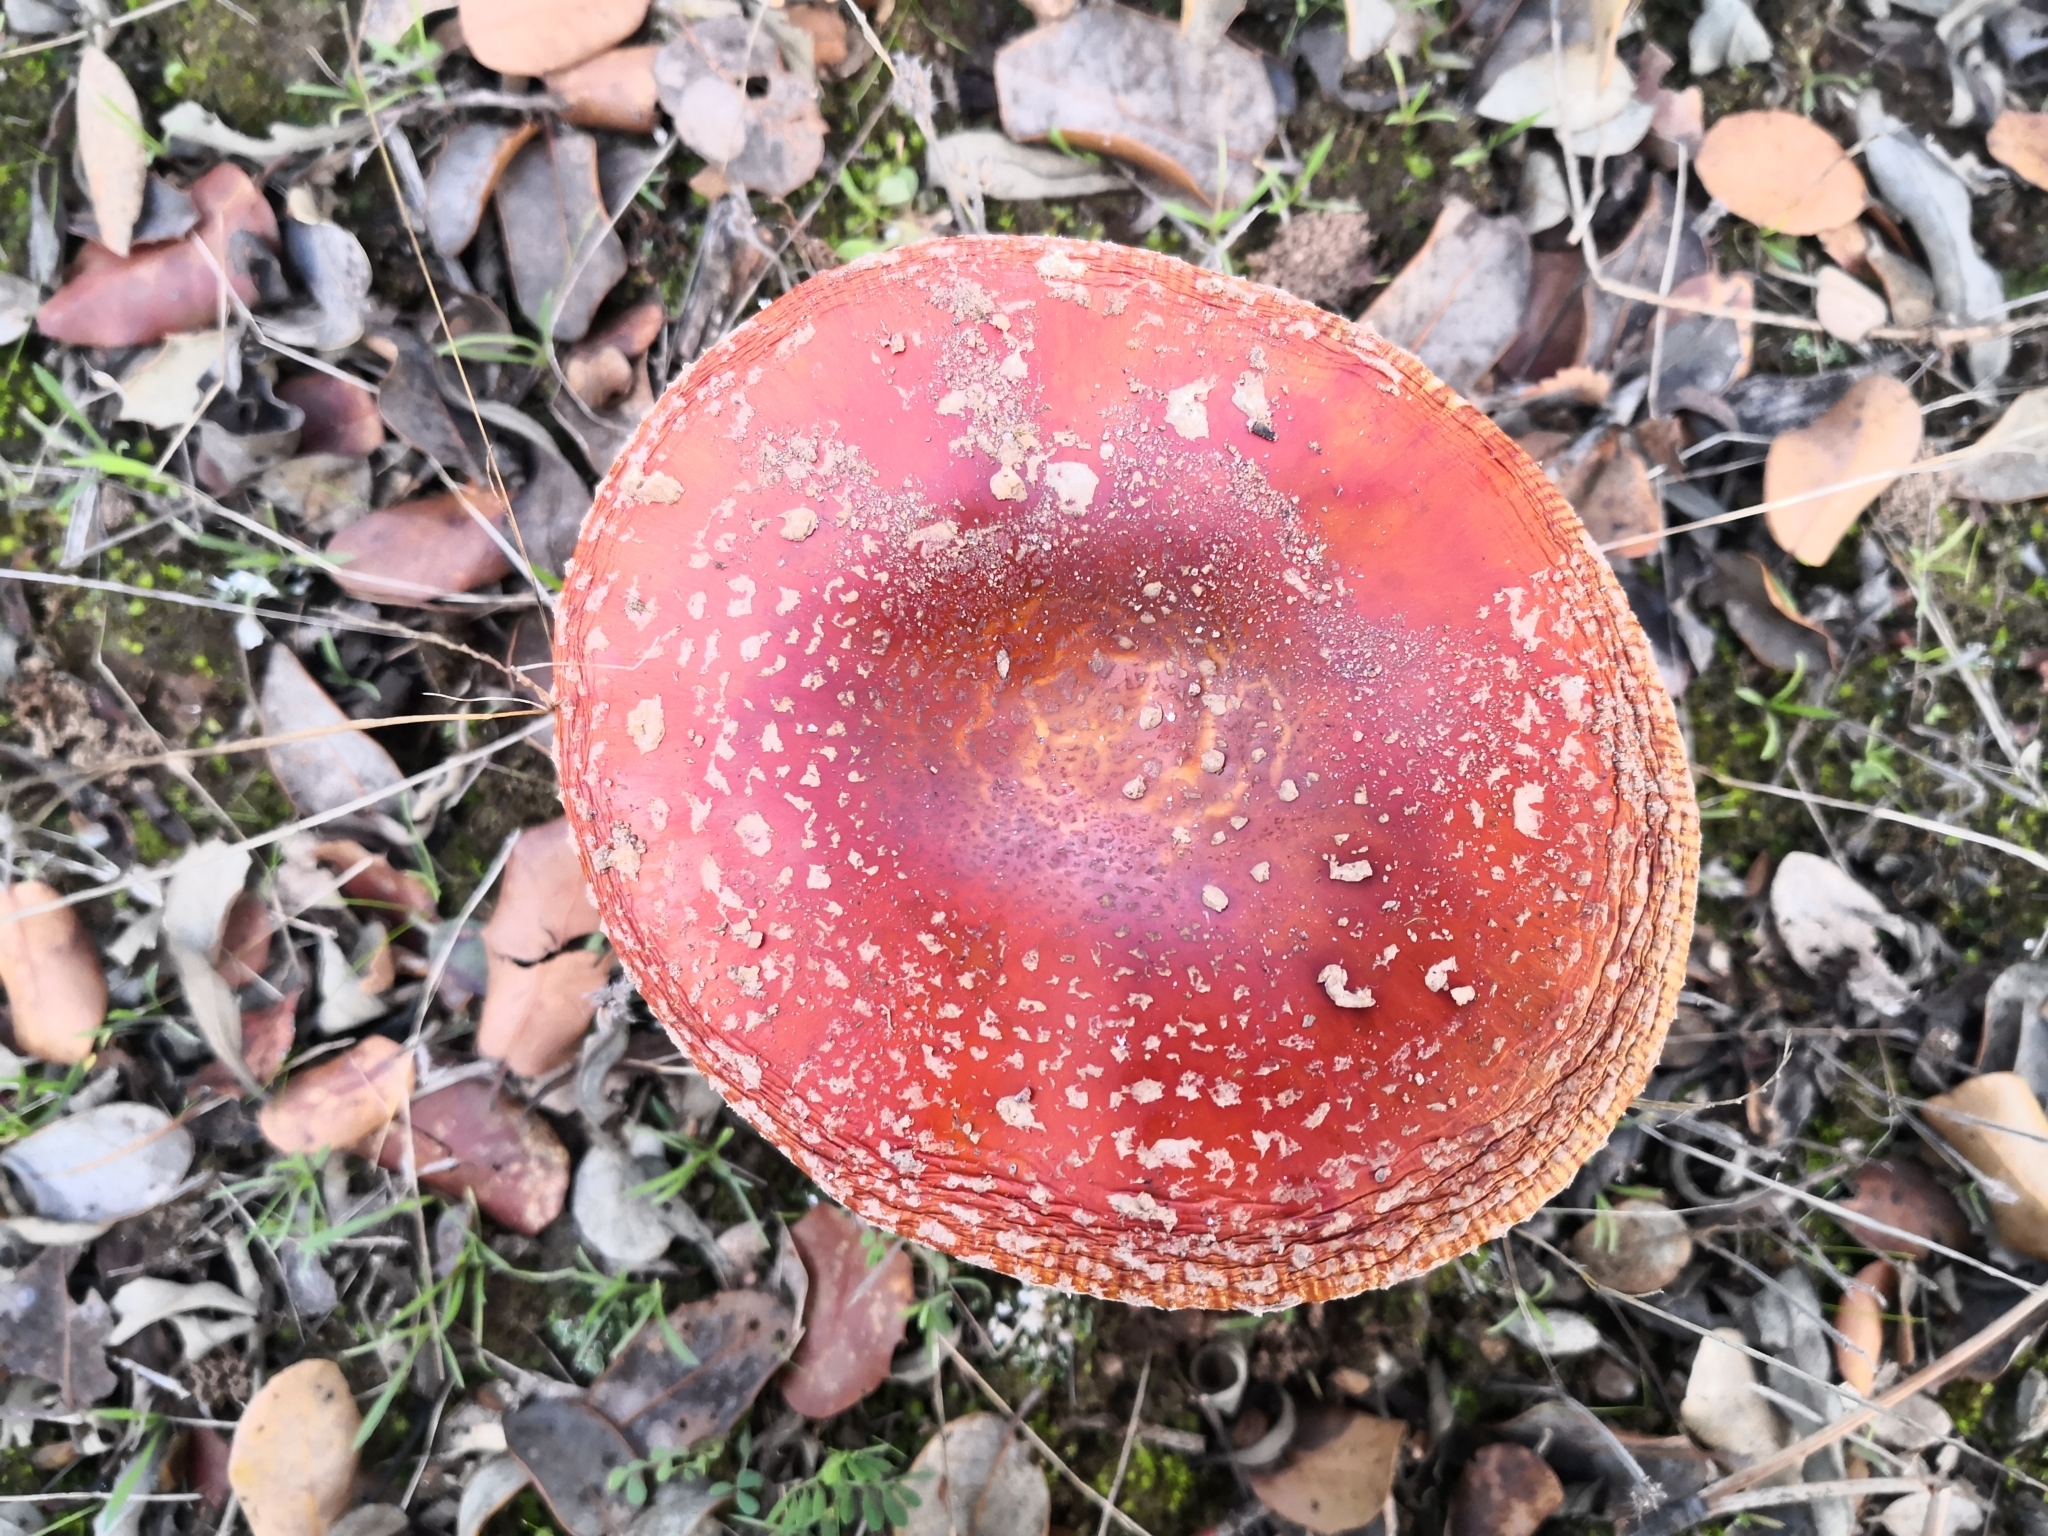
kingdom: Fungi
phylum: Basidiomycota
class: Agaricomycetes
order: Agaricales
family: Amanitaceae
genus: Amanita
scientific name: Amanita muscaria
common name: Fly agaric
